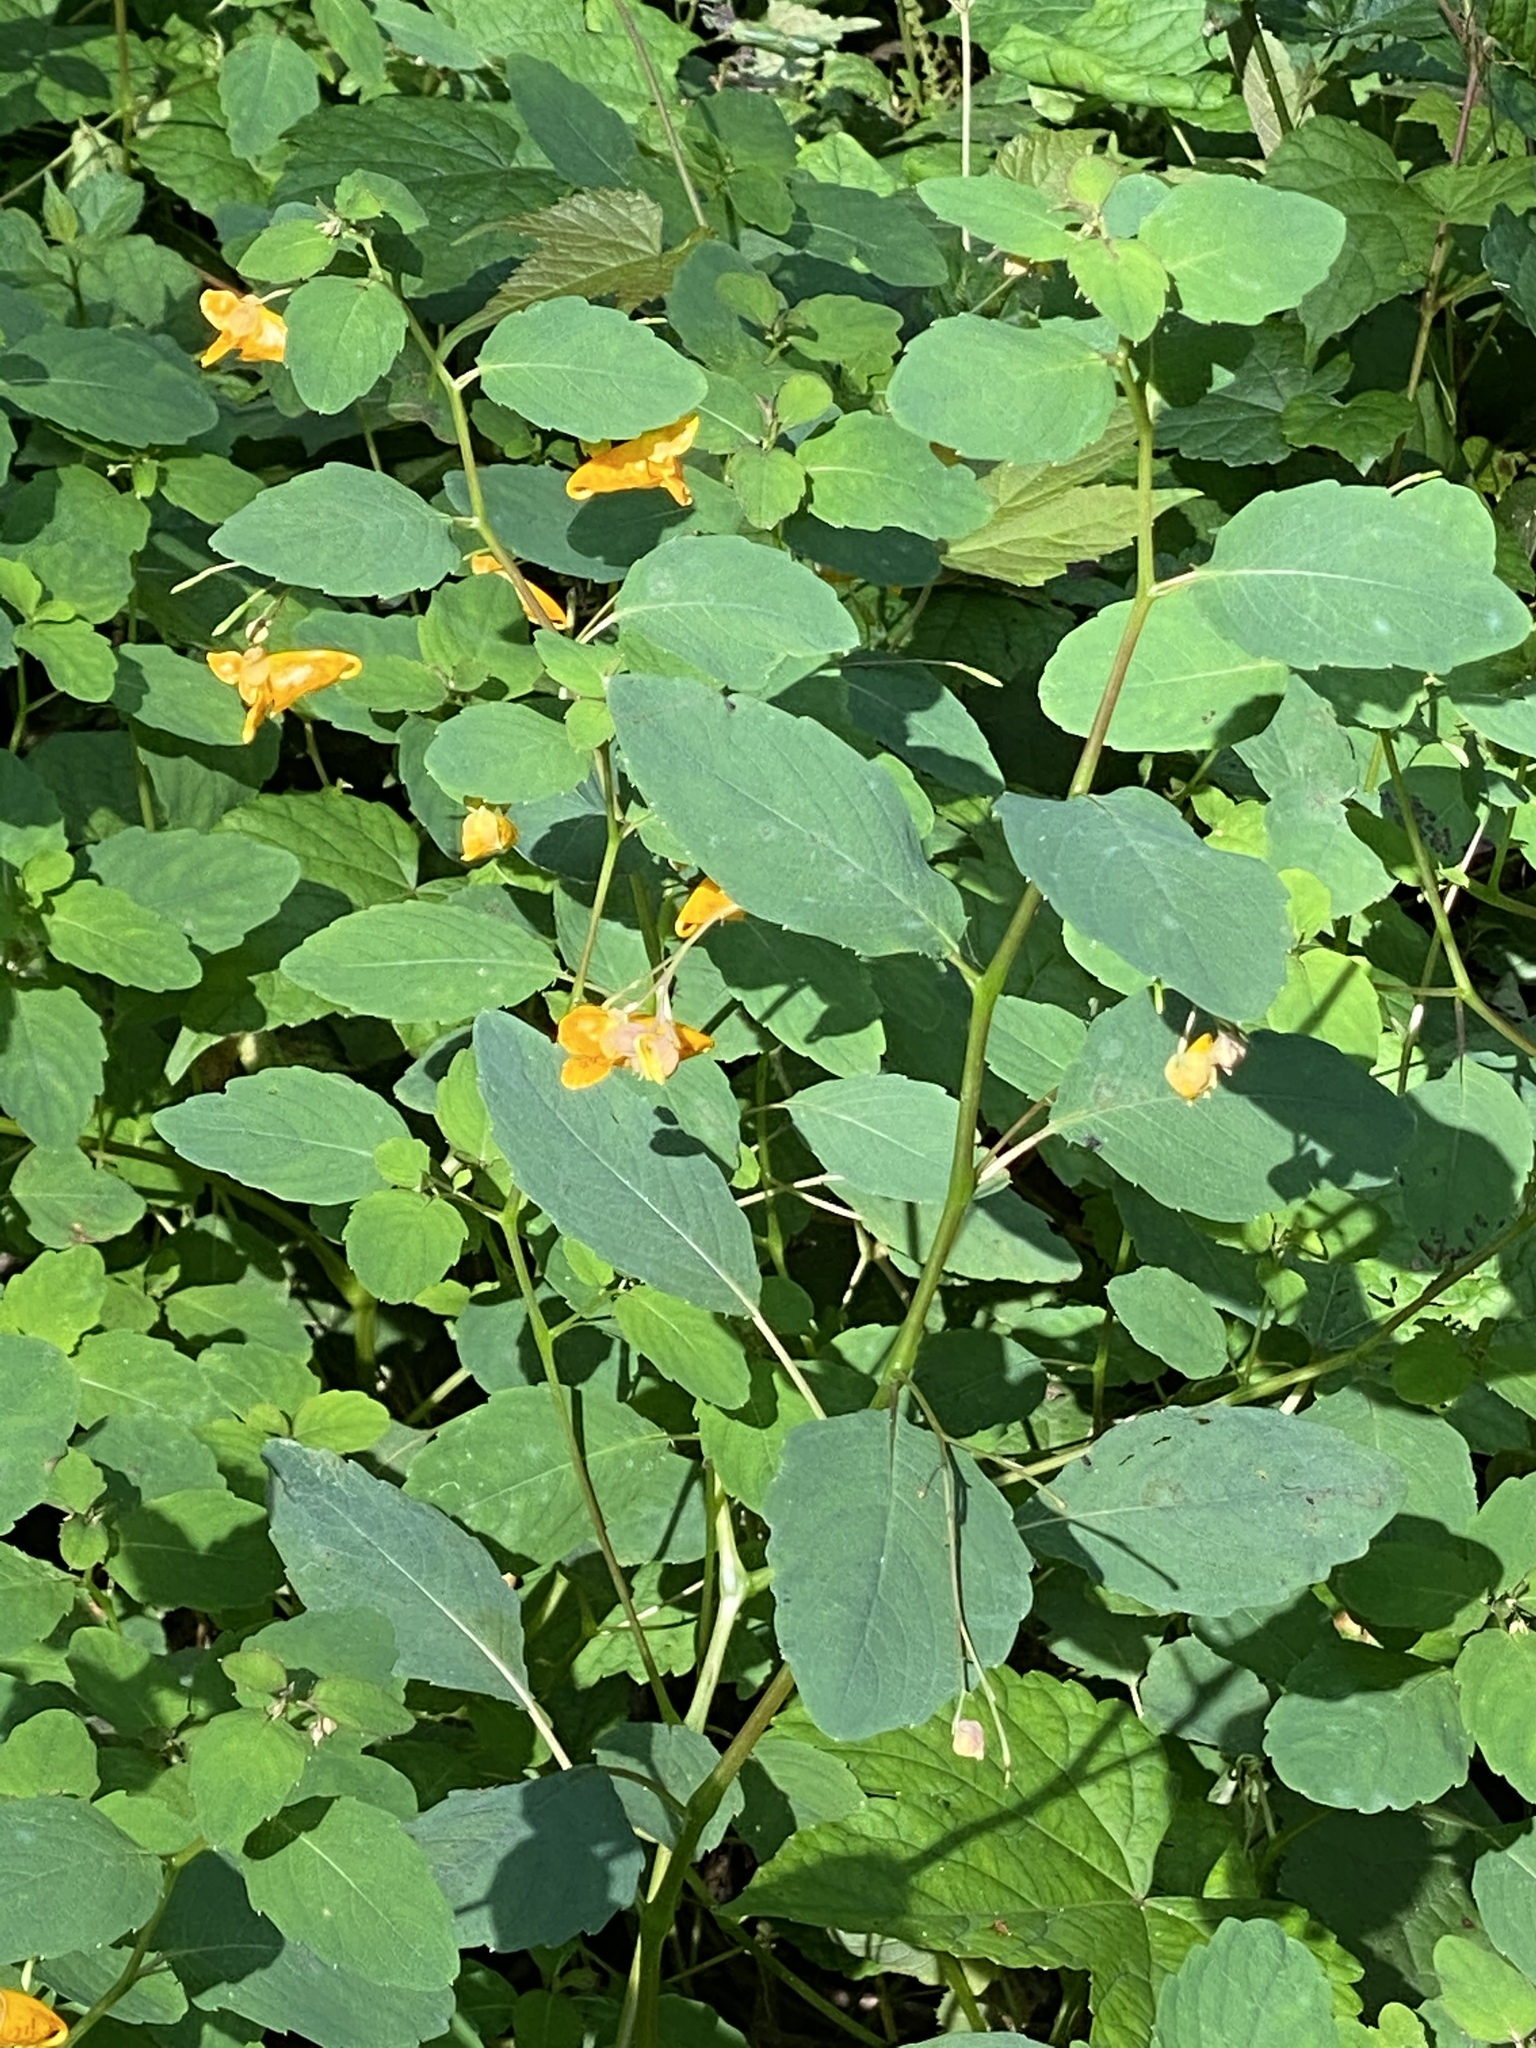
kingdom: Plantae
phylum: Tracheophyta
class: Magnoliopsida
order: Ericales
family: Balsaminaceae
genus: Impatiens
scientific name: Impatiens capensis
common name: Orange balsam
